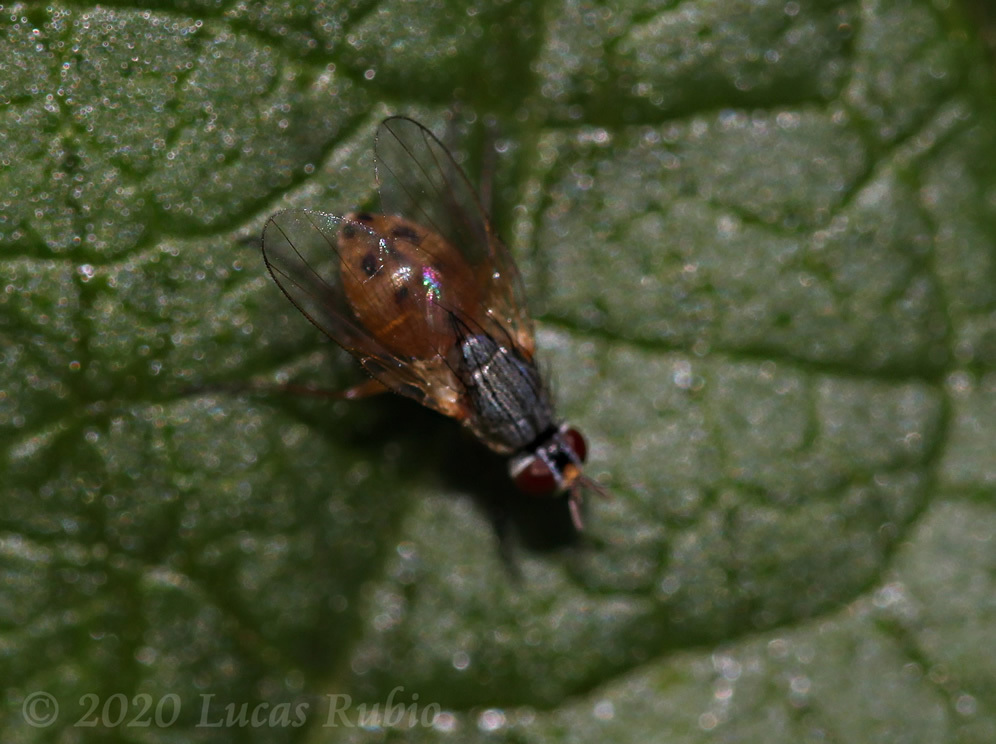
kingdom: Animalia
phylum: Arthropoda
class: Insecta
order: Diptera
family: Muscidae
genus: Atherigona
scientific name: Atherigona reversura
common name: Bermudagrass stem maggot
